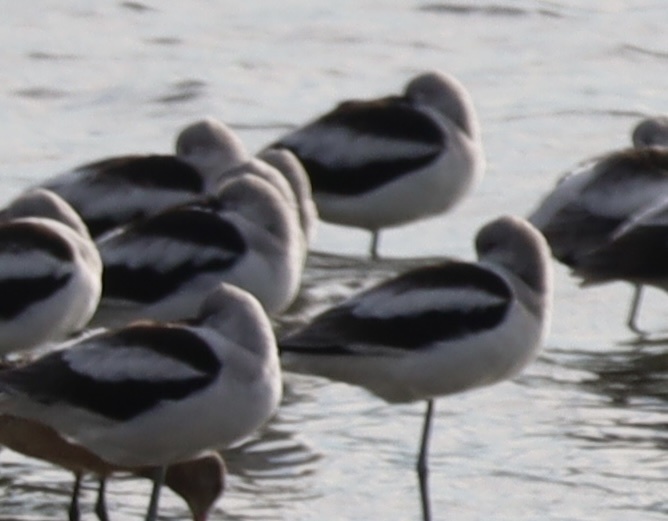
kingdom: Animalia
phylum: Chordata
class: Aves
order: Charadriiformes
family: Recurvirostridae
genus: Recurvirostra
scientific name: Recurvirostra americana
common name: American avocet
